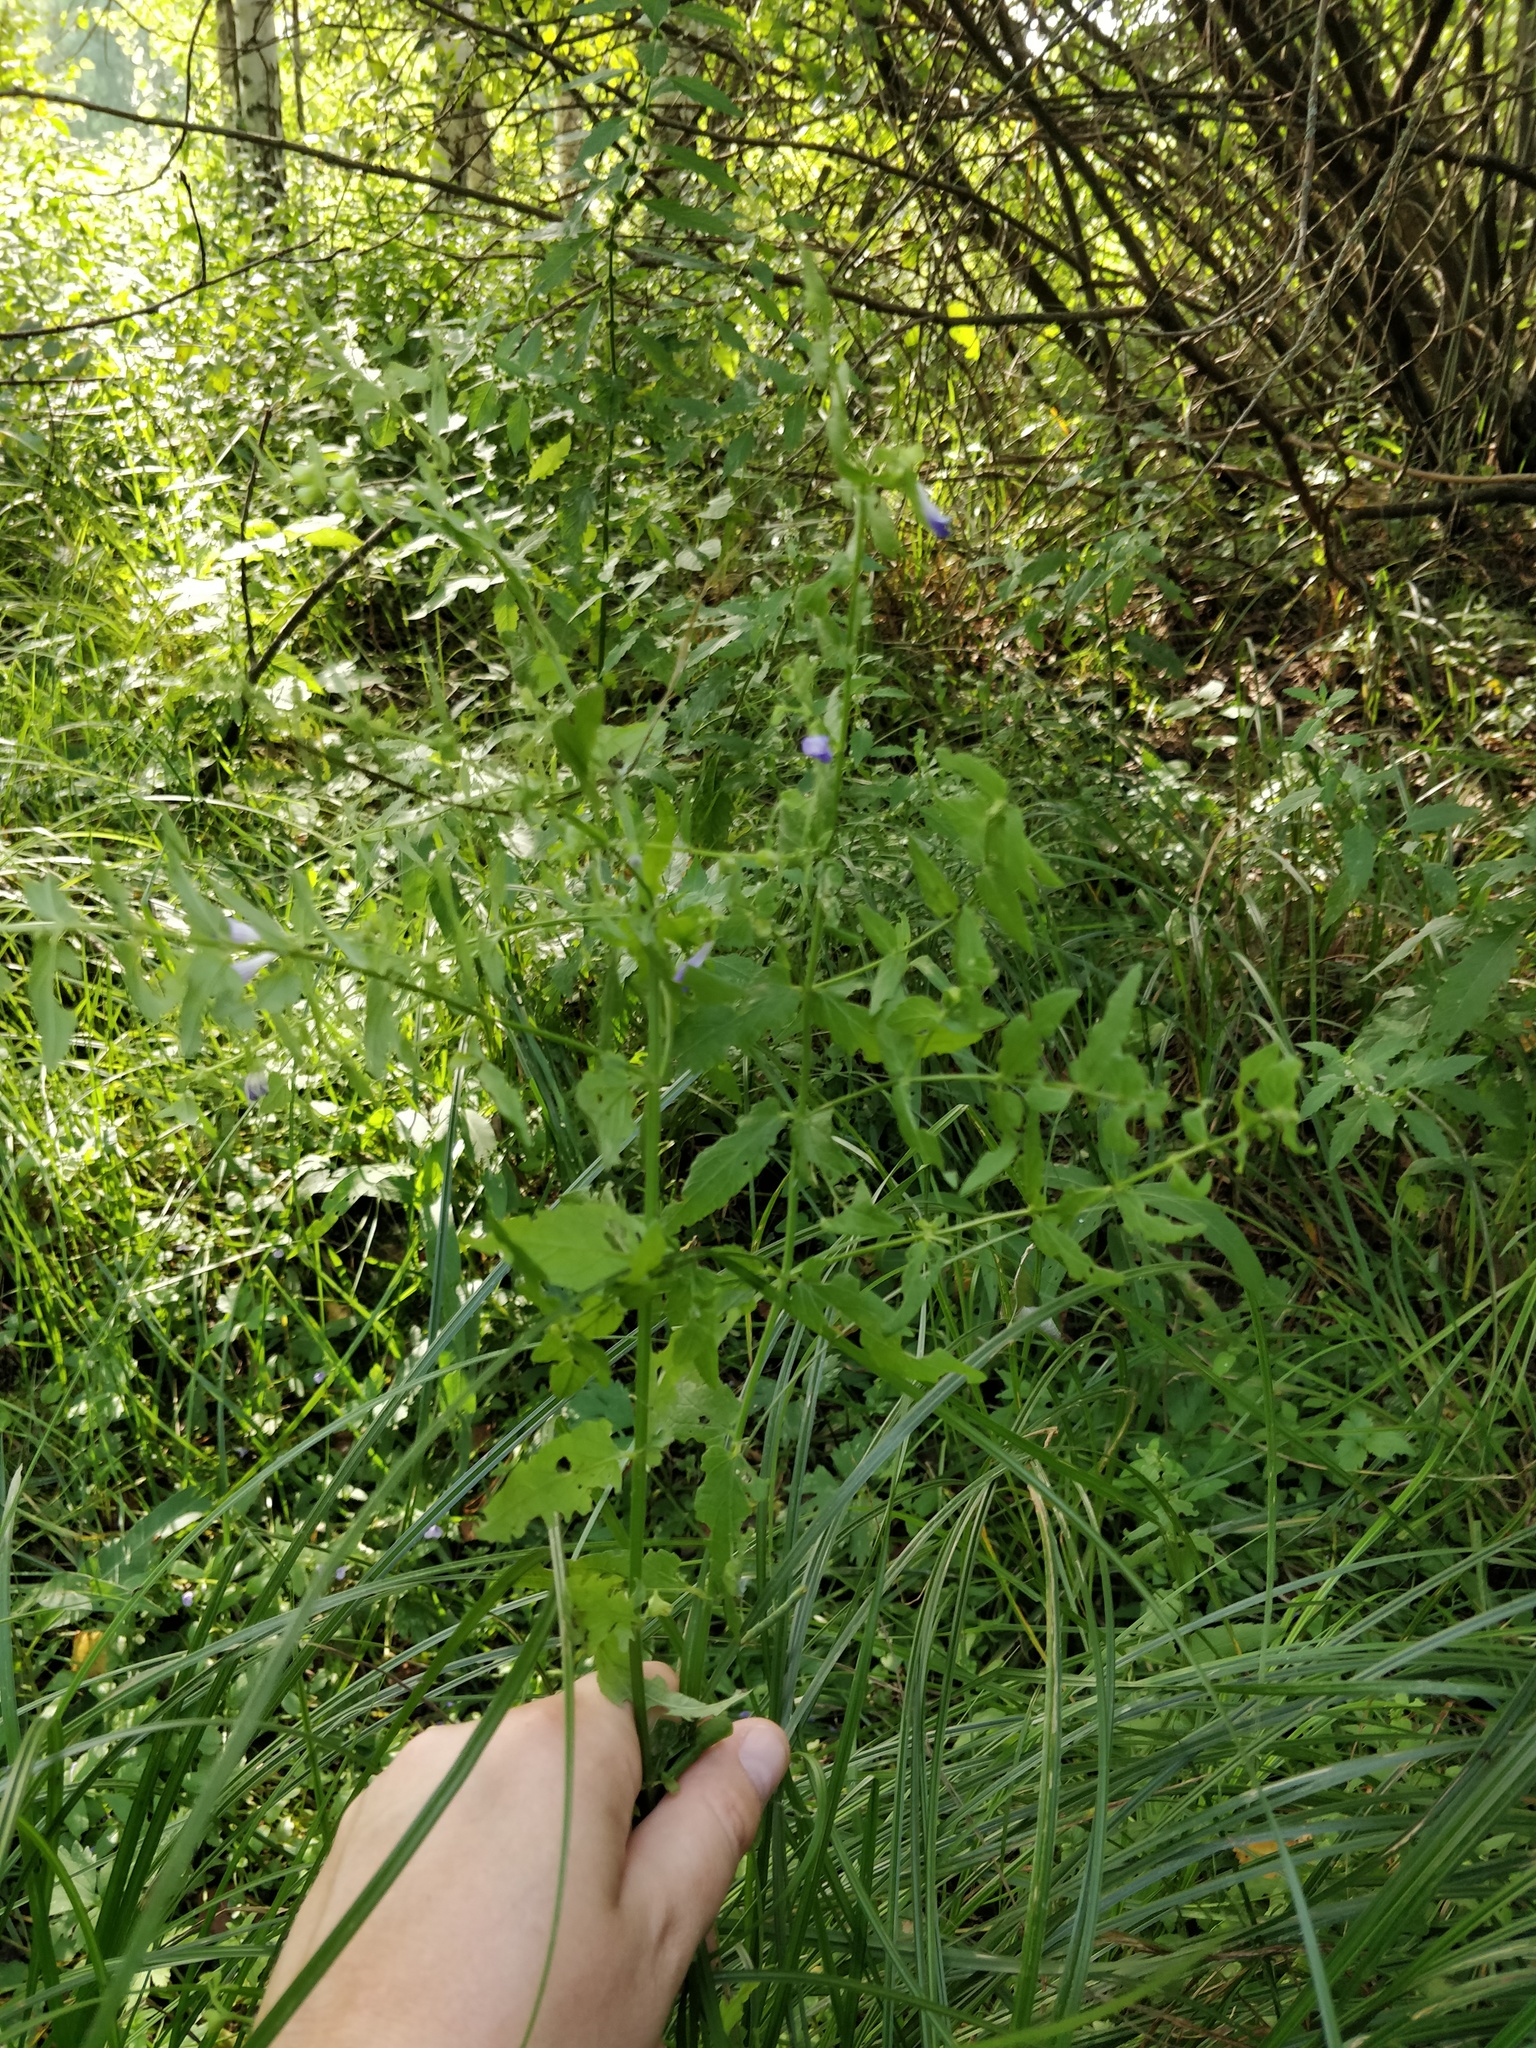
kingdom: Plantae
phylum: Tracheophyta
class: Magnoliopsida
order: Lamiales
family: Lamiaceae
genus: Scutellaria
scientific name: Scutellaria galericulata
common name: Skullcap
